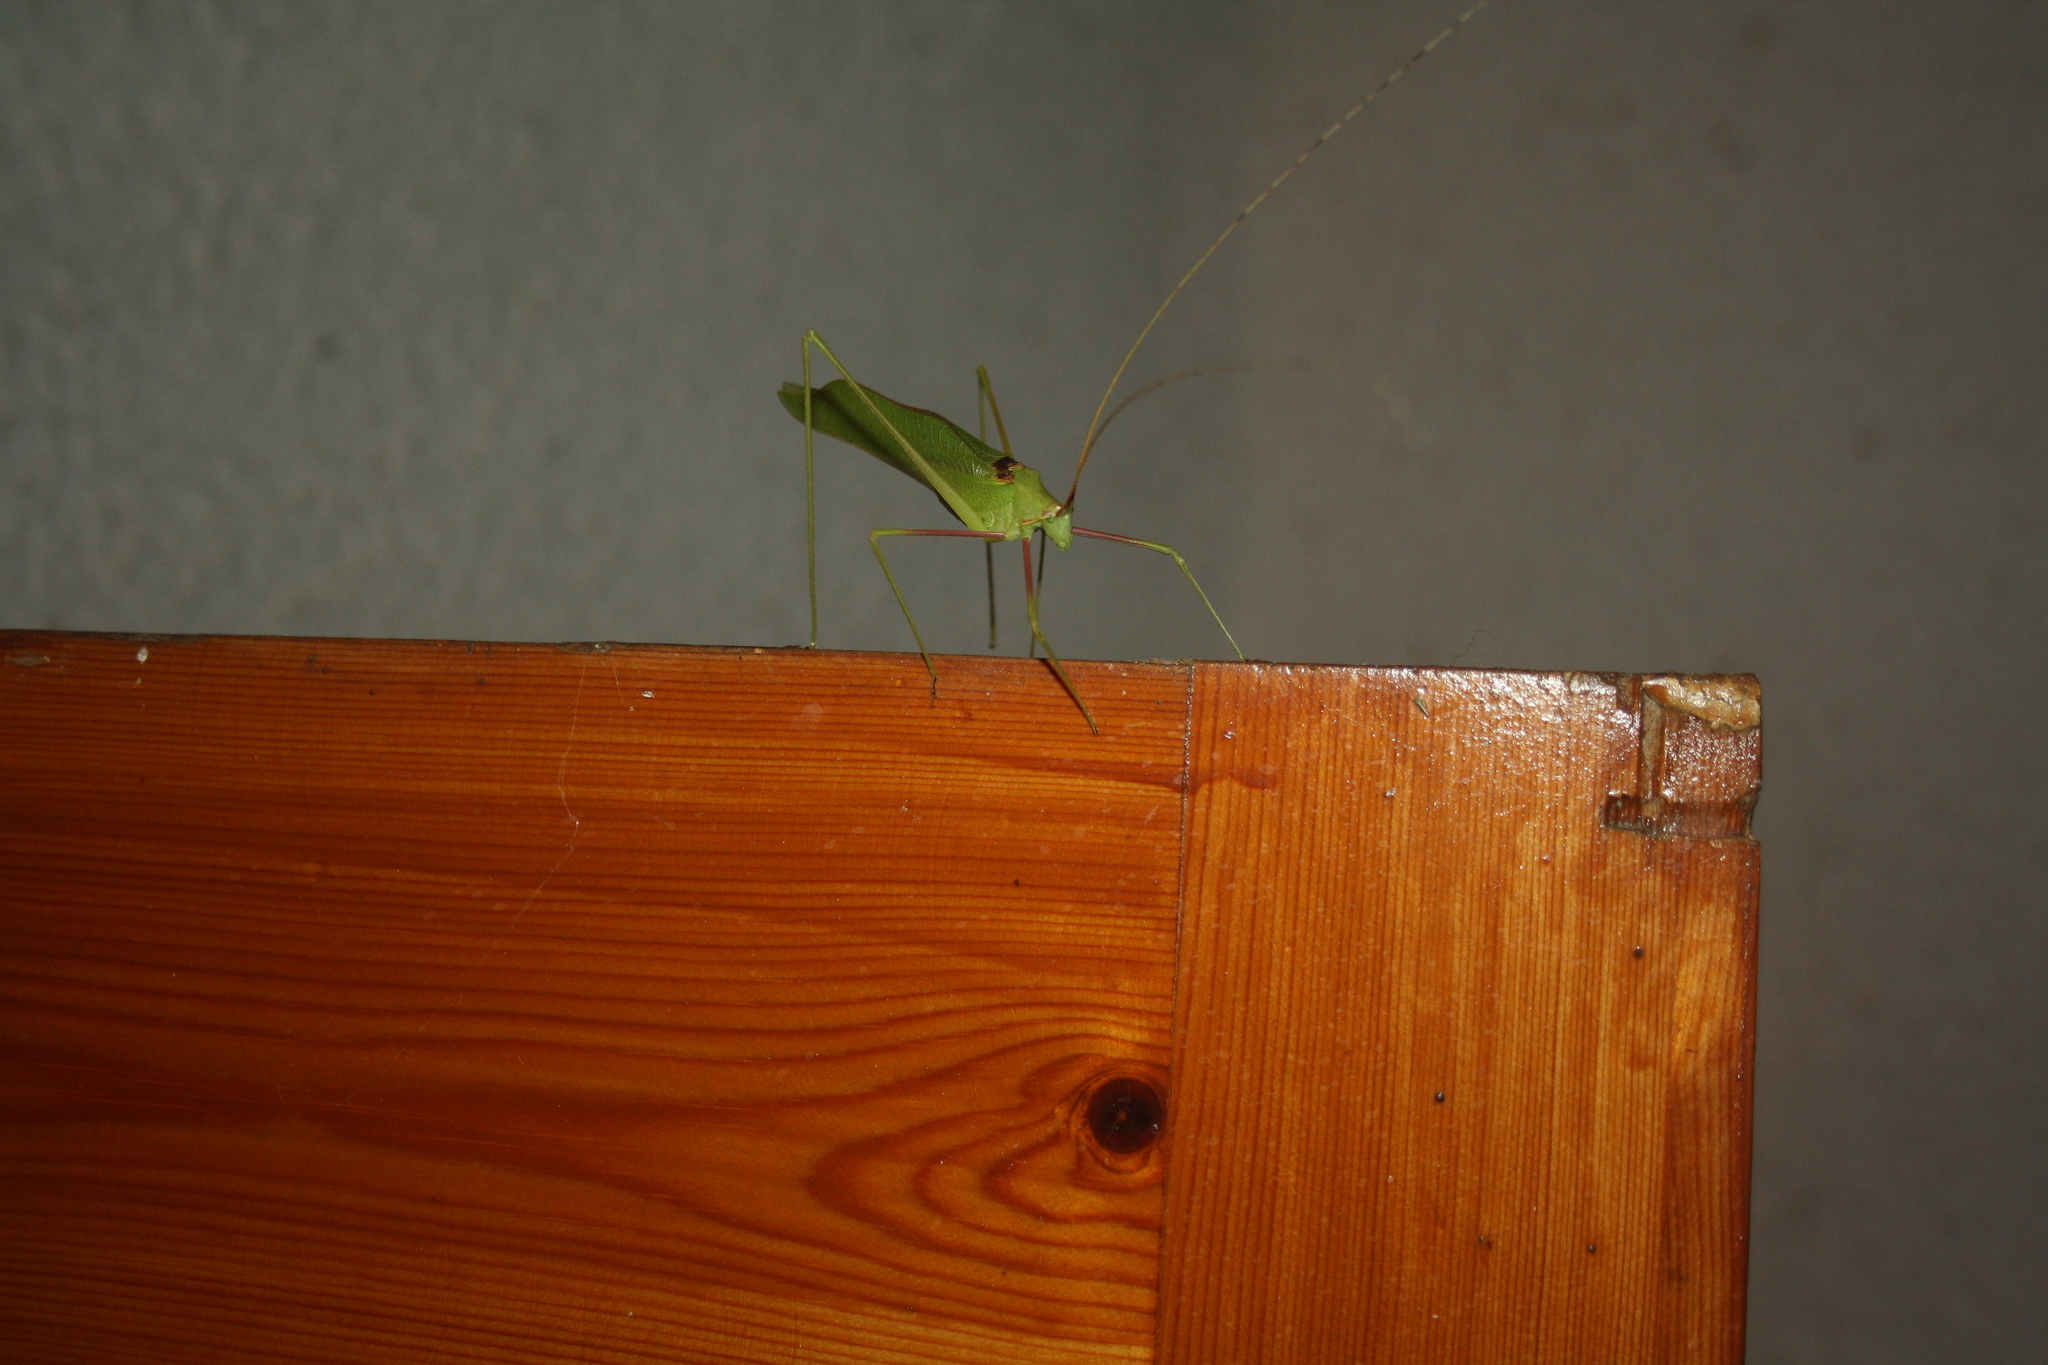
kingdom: Animalia
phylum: Arthropoda
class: Insecta
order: Orthoptera
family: Tettigoniidae
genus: Acrometopa
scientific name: Acrometopa servillea
